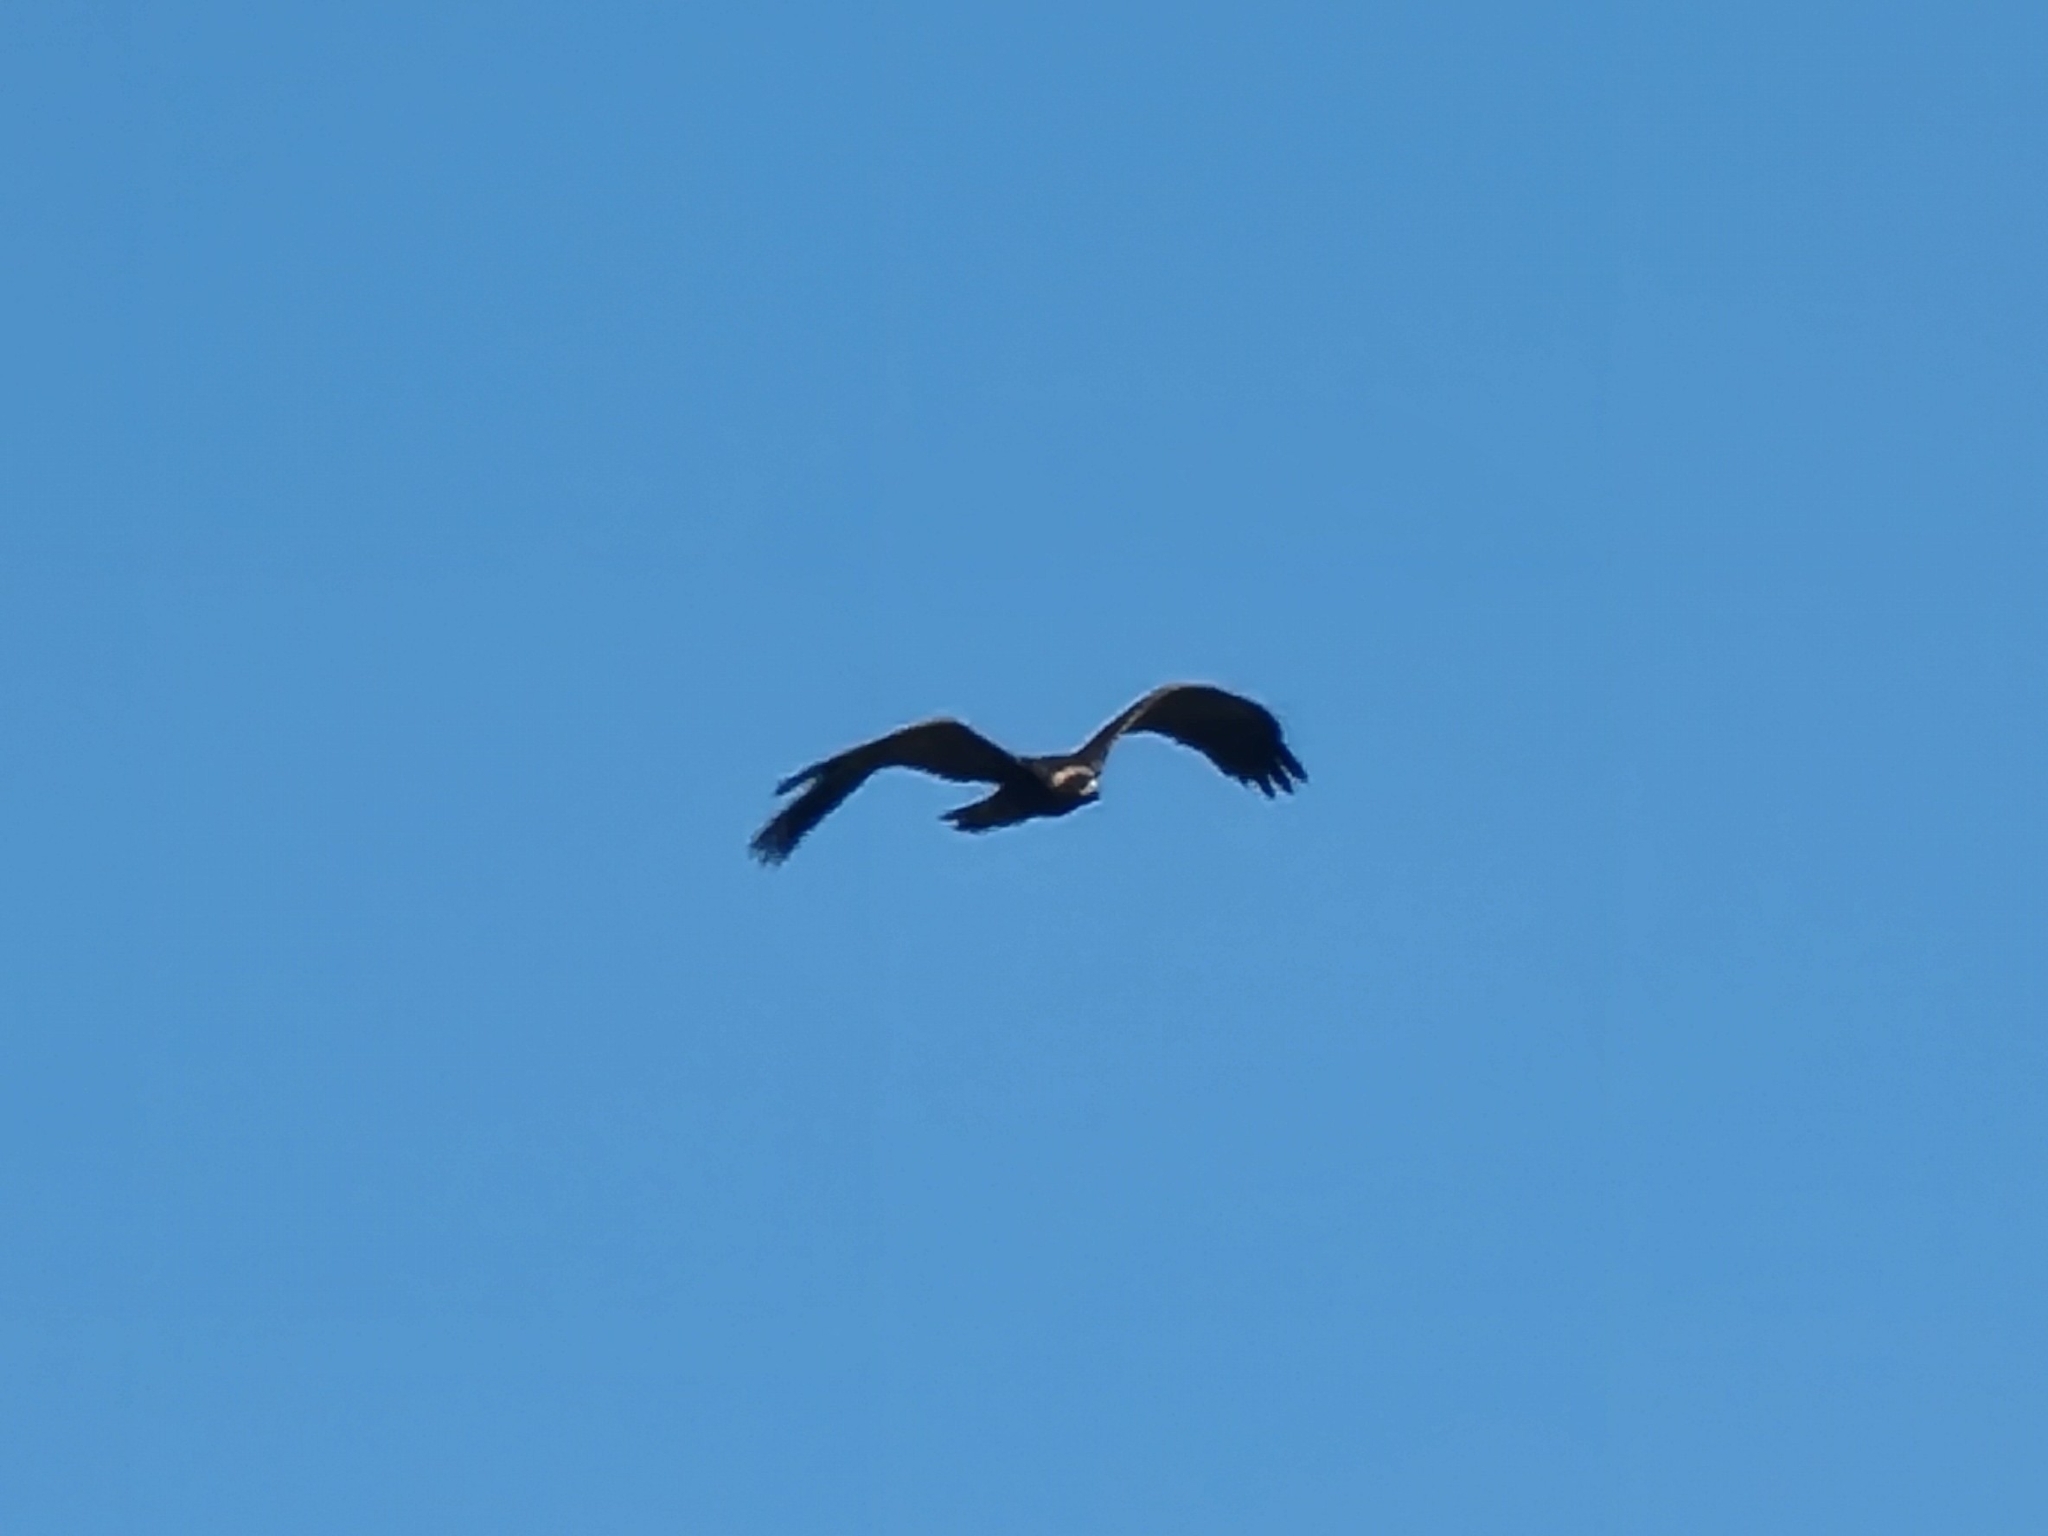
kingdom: Animalia
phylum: Chordata
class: Aves
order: Accipitriformes
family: Accipitridae
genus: Aquila
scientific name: Aquila chrysaetos
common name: Golden eagle
